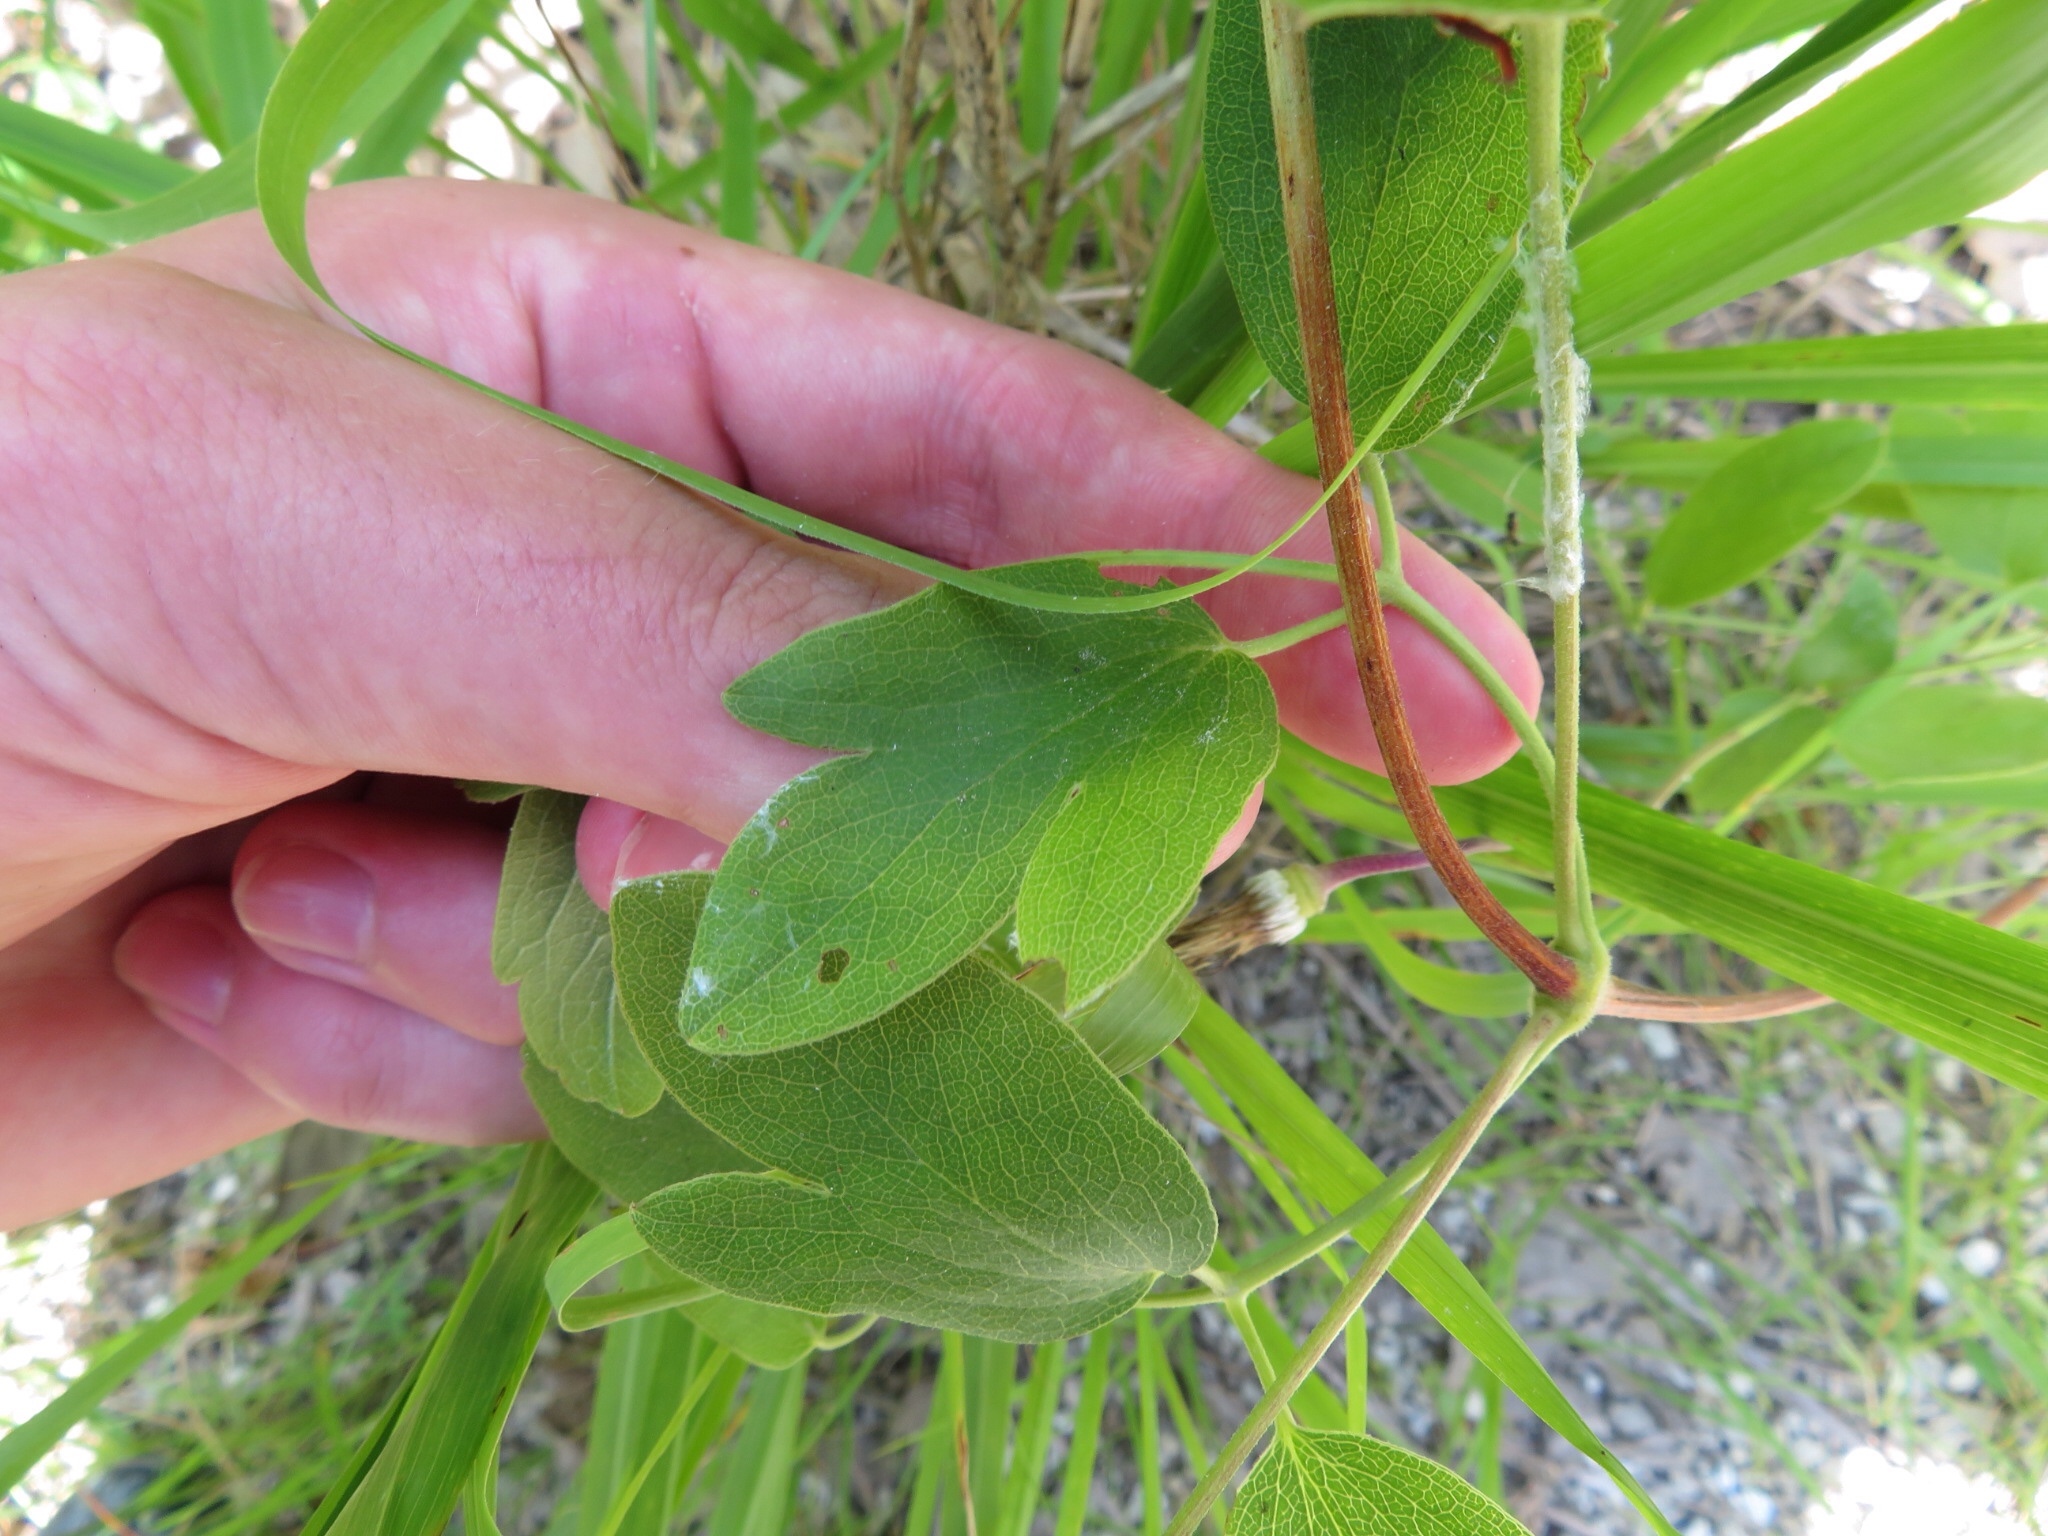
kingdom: Plantae
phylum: Tracheophyta
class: Magnoliopsida
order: Ranunculales
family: Ranunculaceae
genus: Clematis
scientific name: Clematis pitcheri
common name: Bellflower clematis
